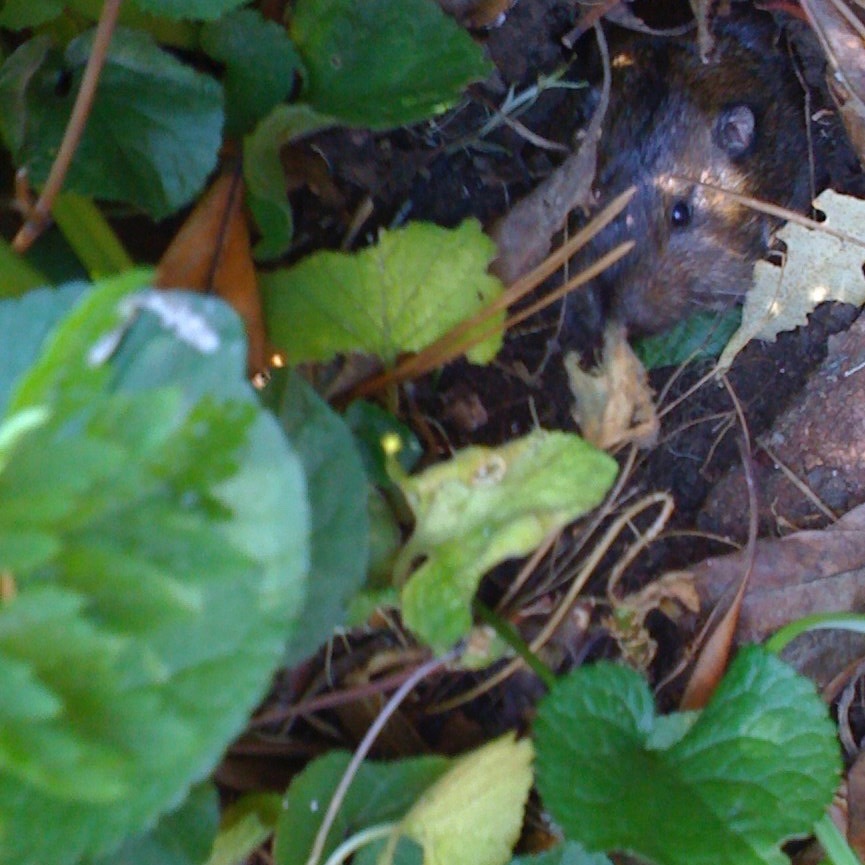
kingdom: Animalia
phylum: Chordata
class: Mammalia
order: Rodentia
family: Geomyidae
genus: Thomomys
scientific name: Thomomys bottae
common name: Botta's pocket gopher
